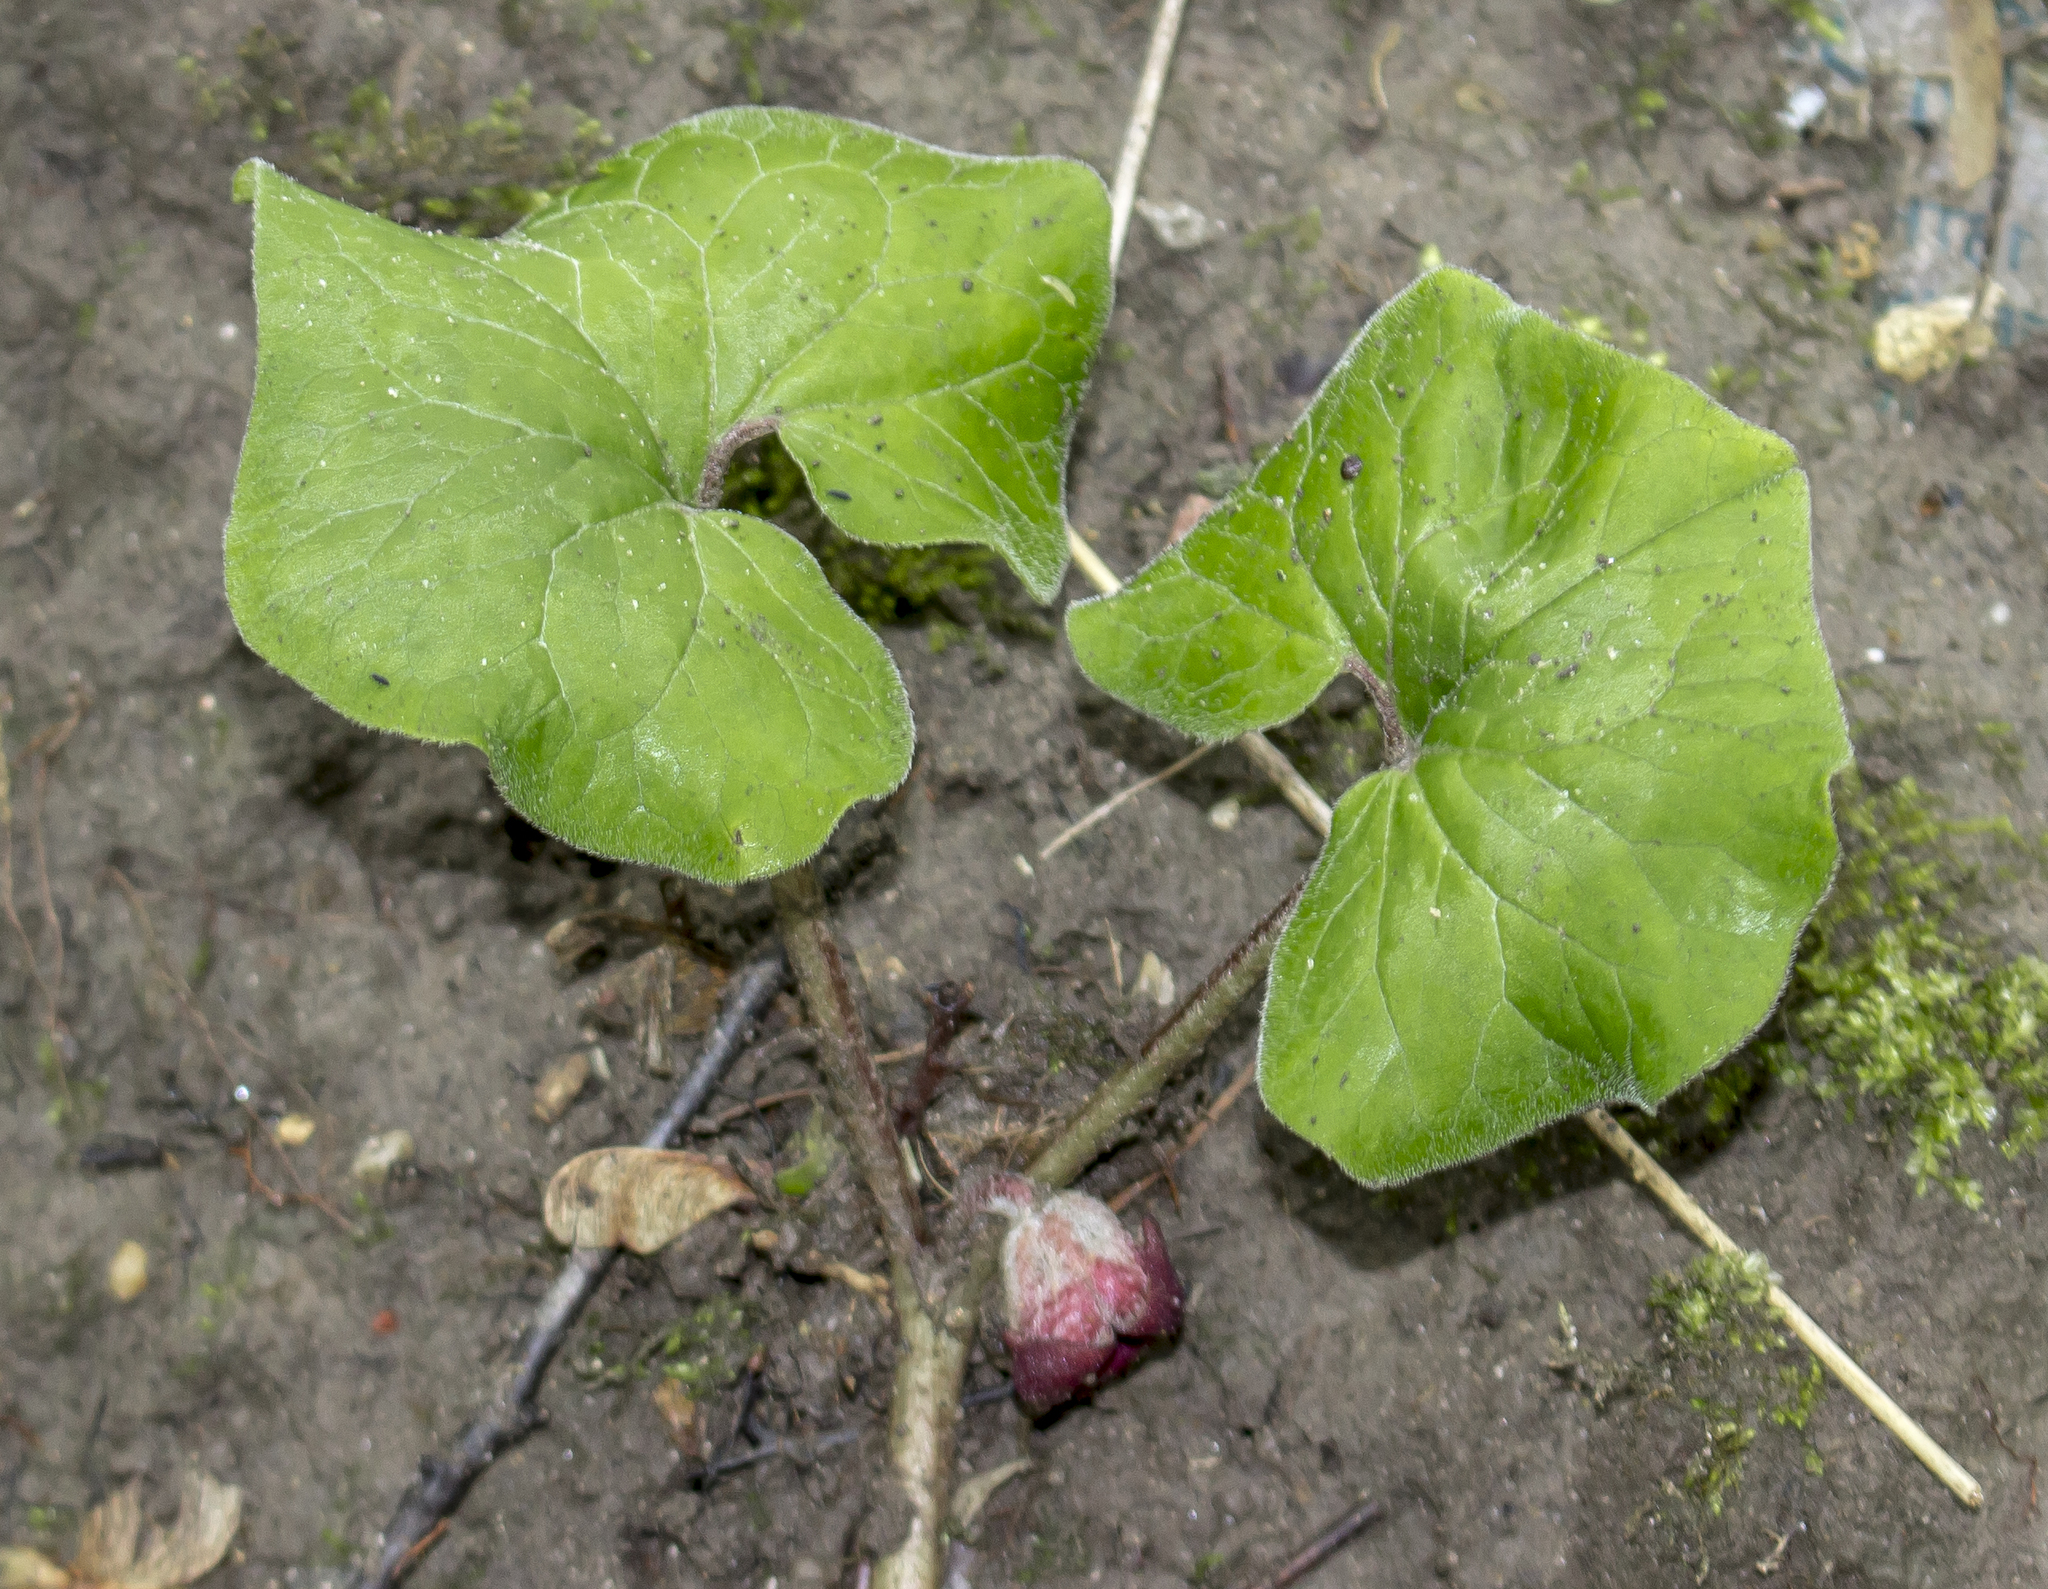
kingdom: Plantae
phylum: Tracheophyta
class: Magnoliopsida
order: Piperales
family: Aristolochiaceae
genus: Asarum
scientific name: Asarum canadense
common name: Wild ginger
